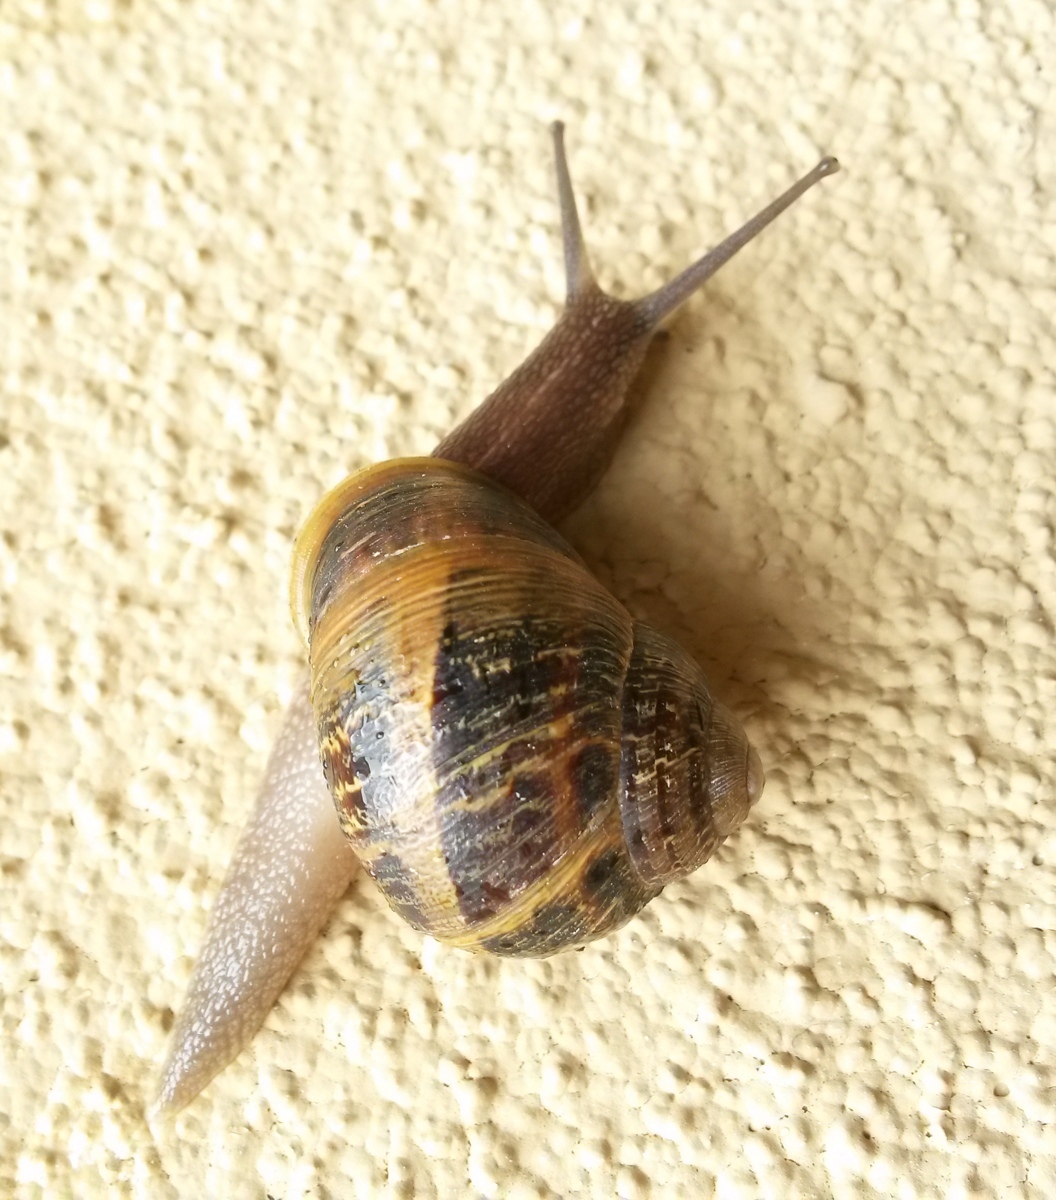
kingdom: Animalia
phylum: Mollusca
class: Gastropoda
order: Stylommatophora
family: Helicidae
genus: Cornu
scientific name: Cornu aspersum
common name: Brown garden snail
